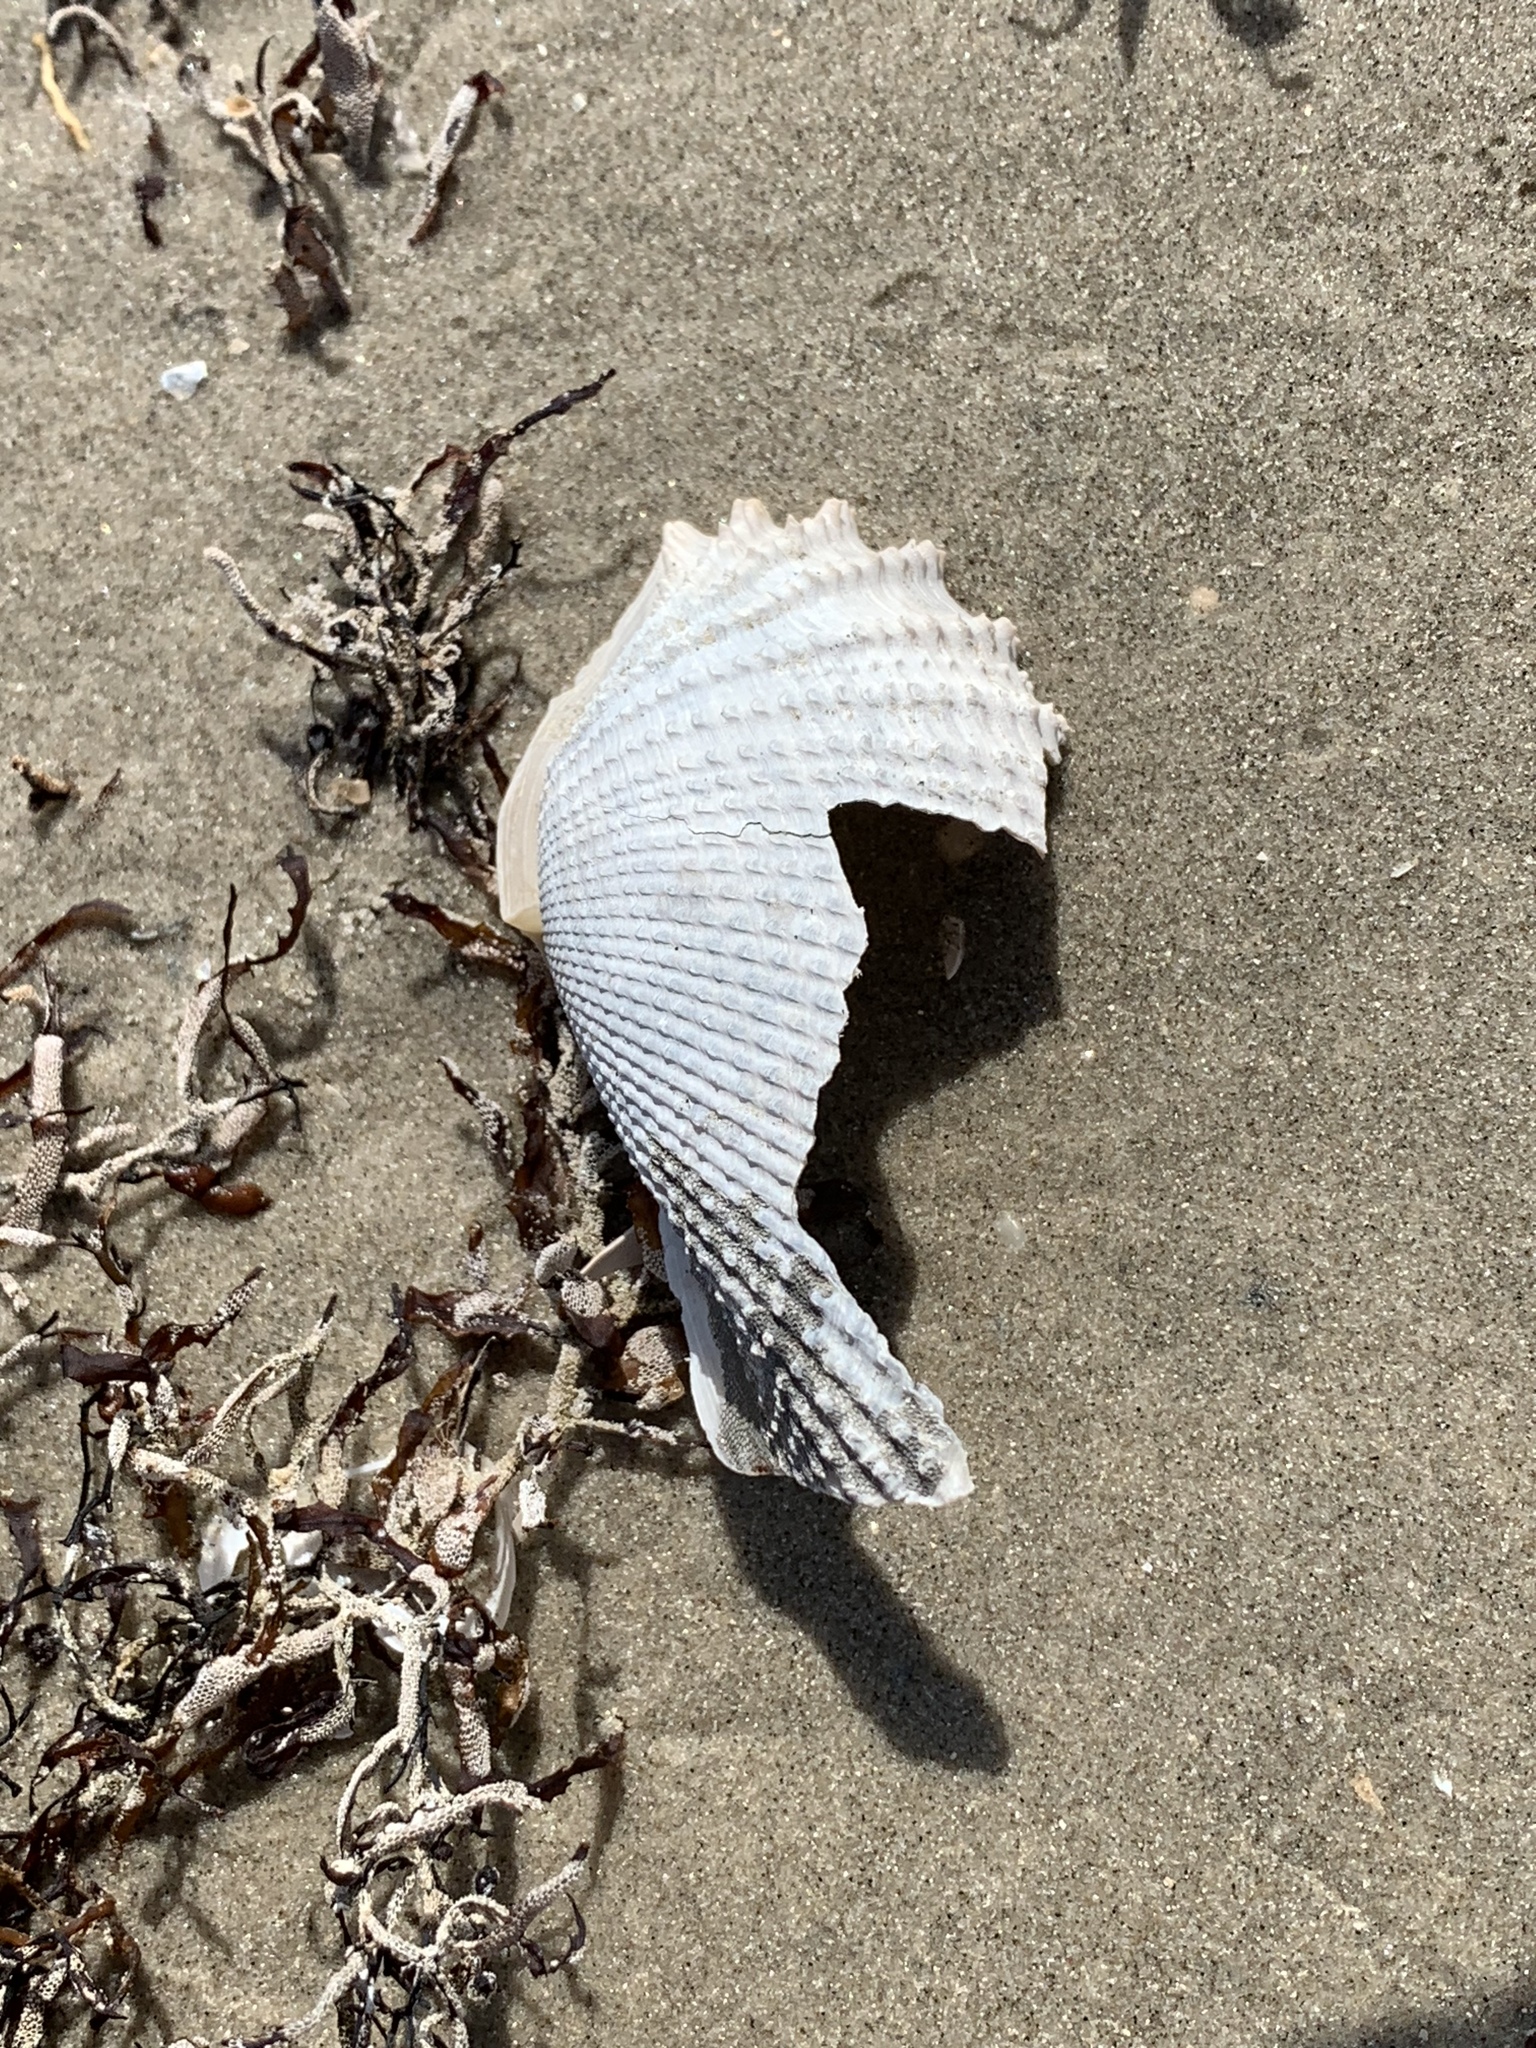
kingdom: Animalia
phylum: Mollusca
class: Bivalvia
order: Myida
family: Pholadidae
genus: Cyrtopleura
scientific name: Cyrtopleura costata
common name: Angel wing
